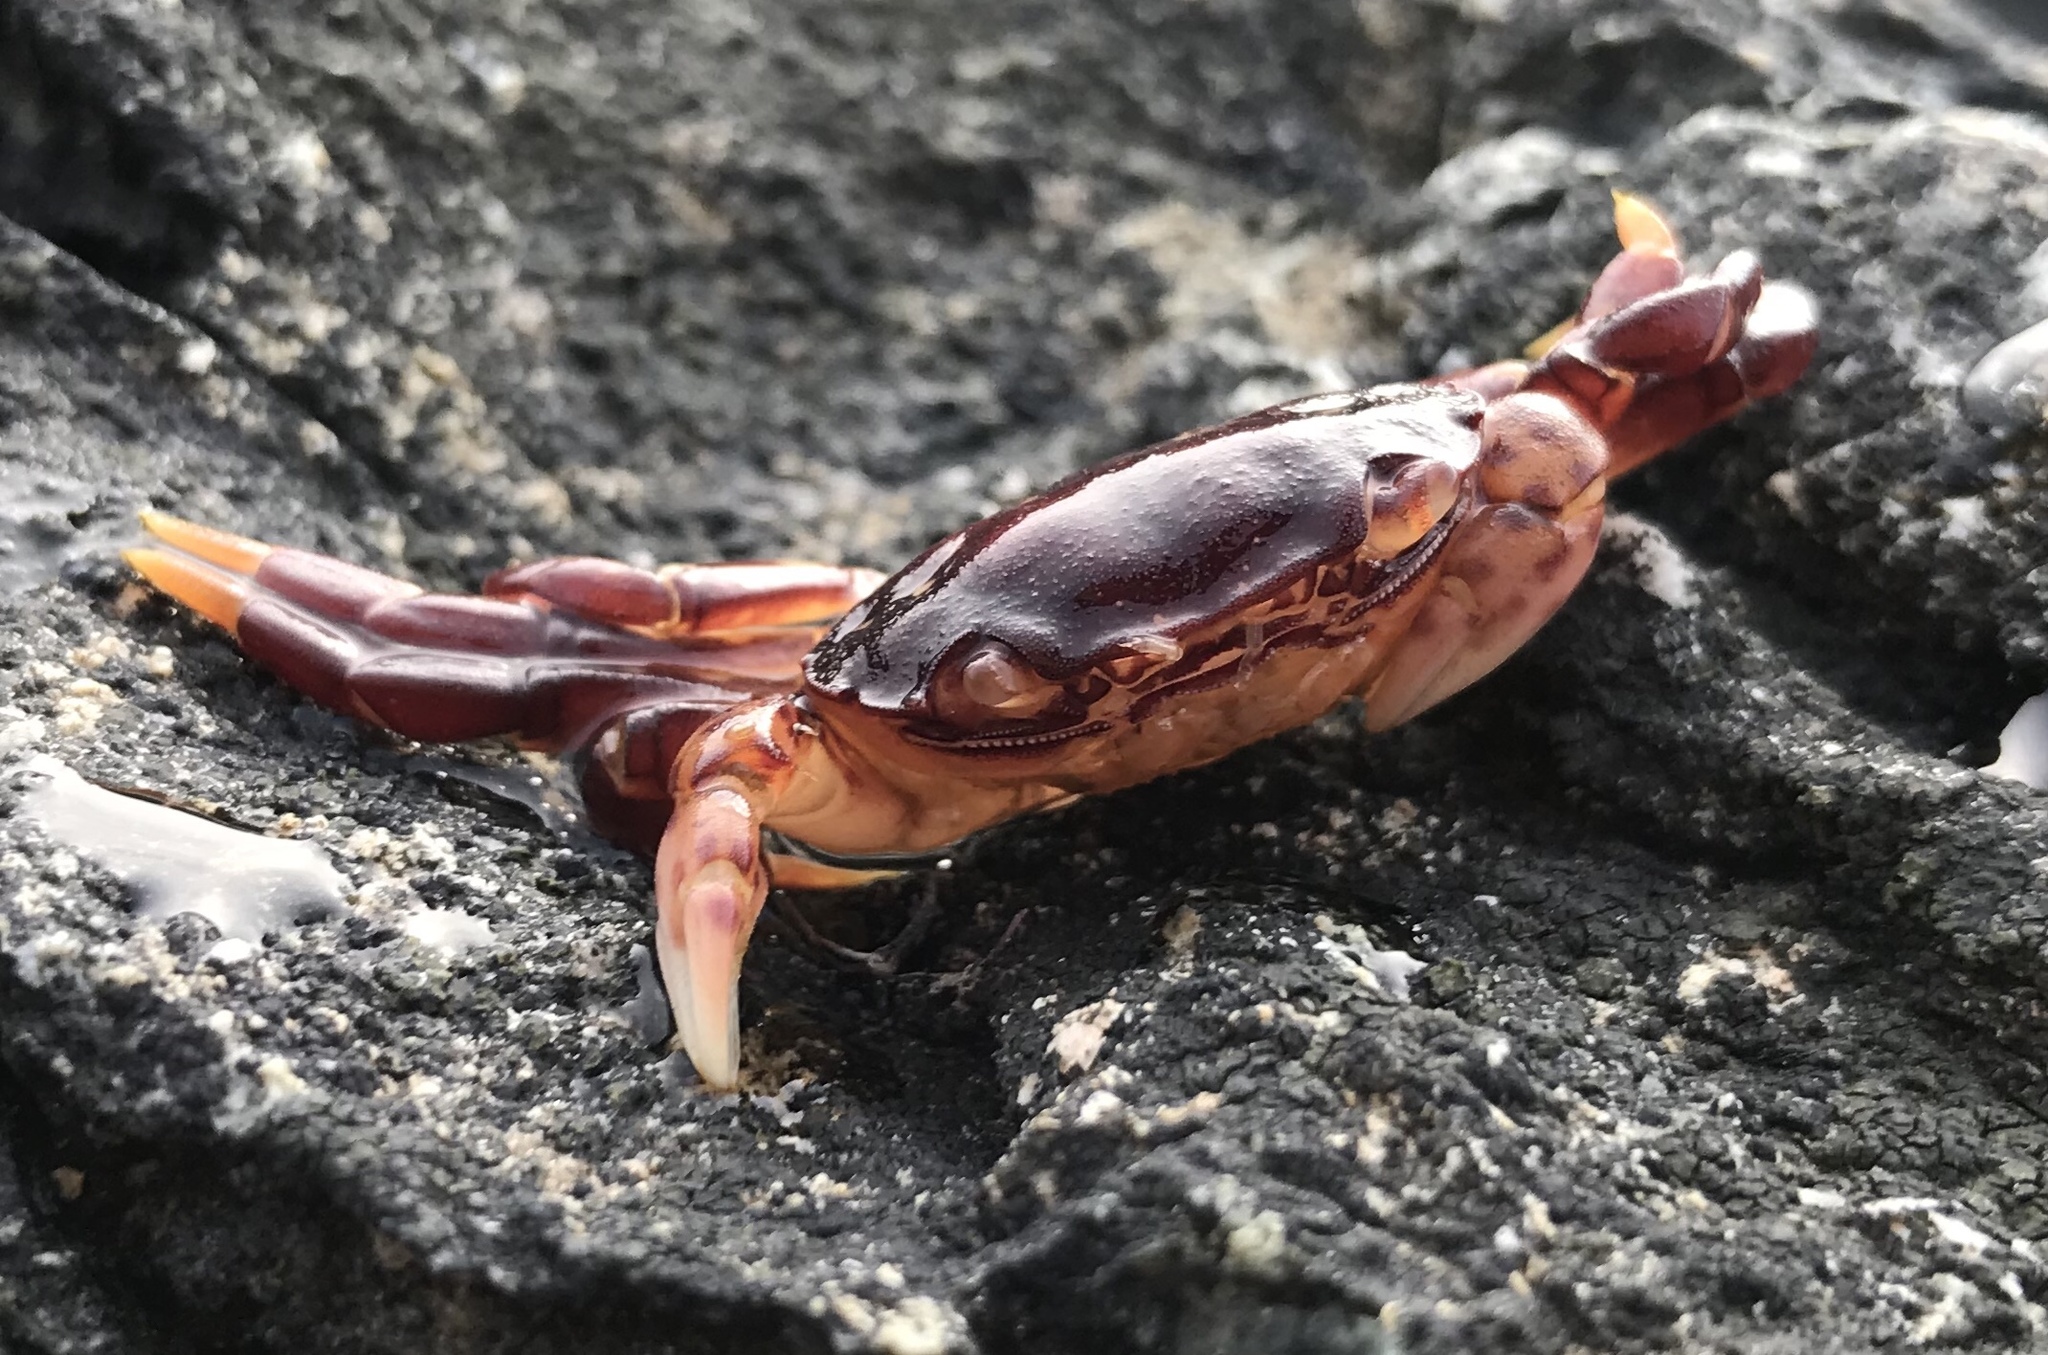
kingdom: Animalia
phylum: Arthropoda
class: Malacostraca
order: Decapoda
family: Varunidae
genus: Hemigrapsus
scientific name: Hemigrapsus nudus
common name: Purple shore crab
